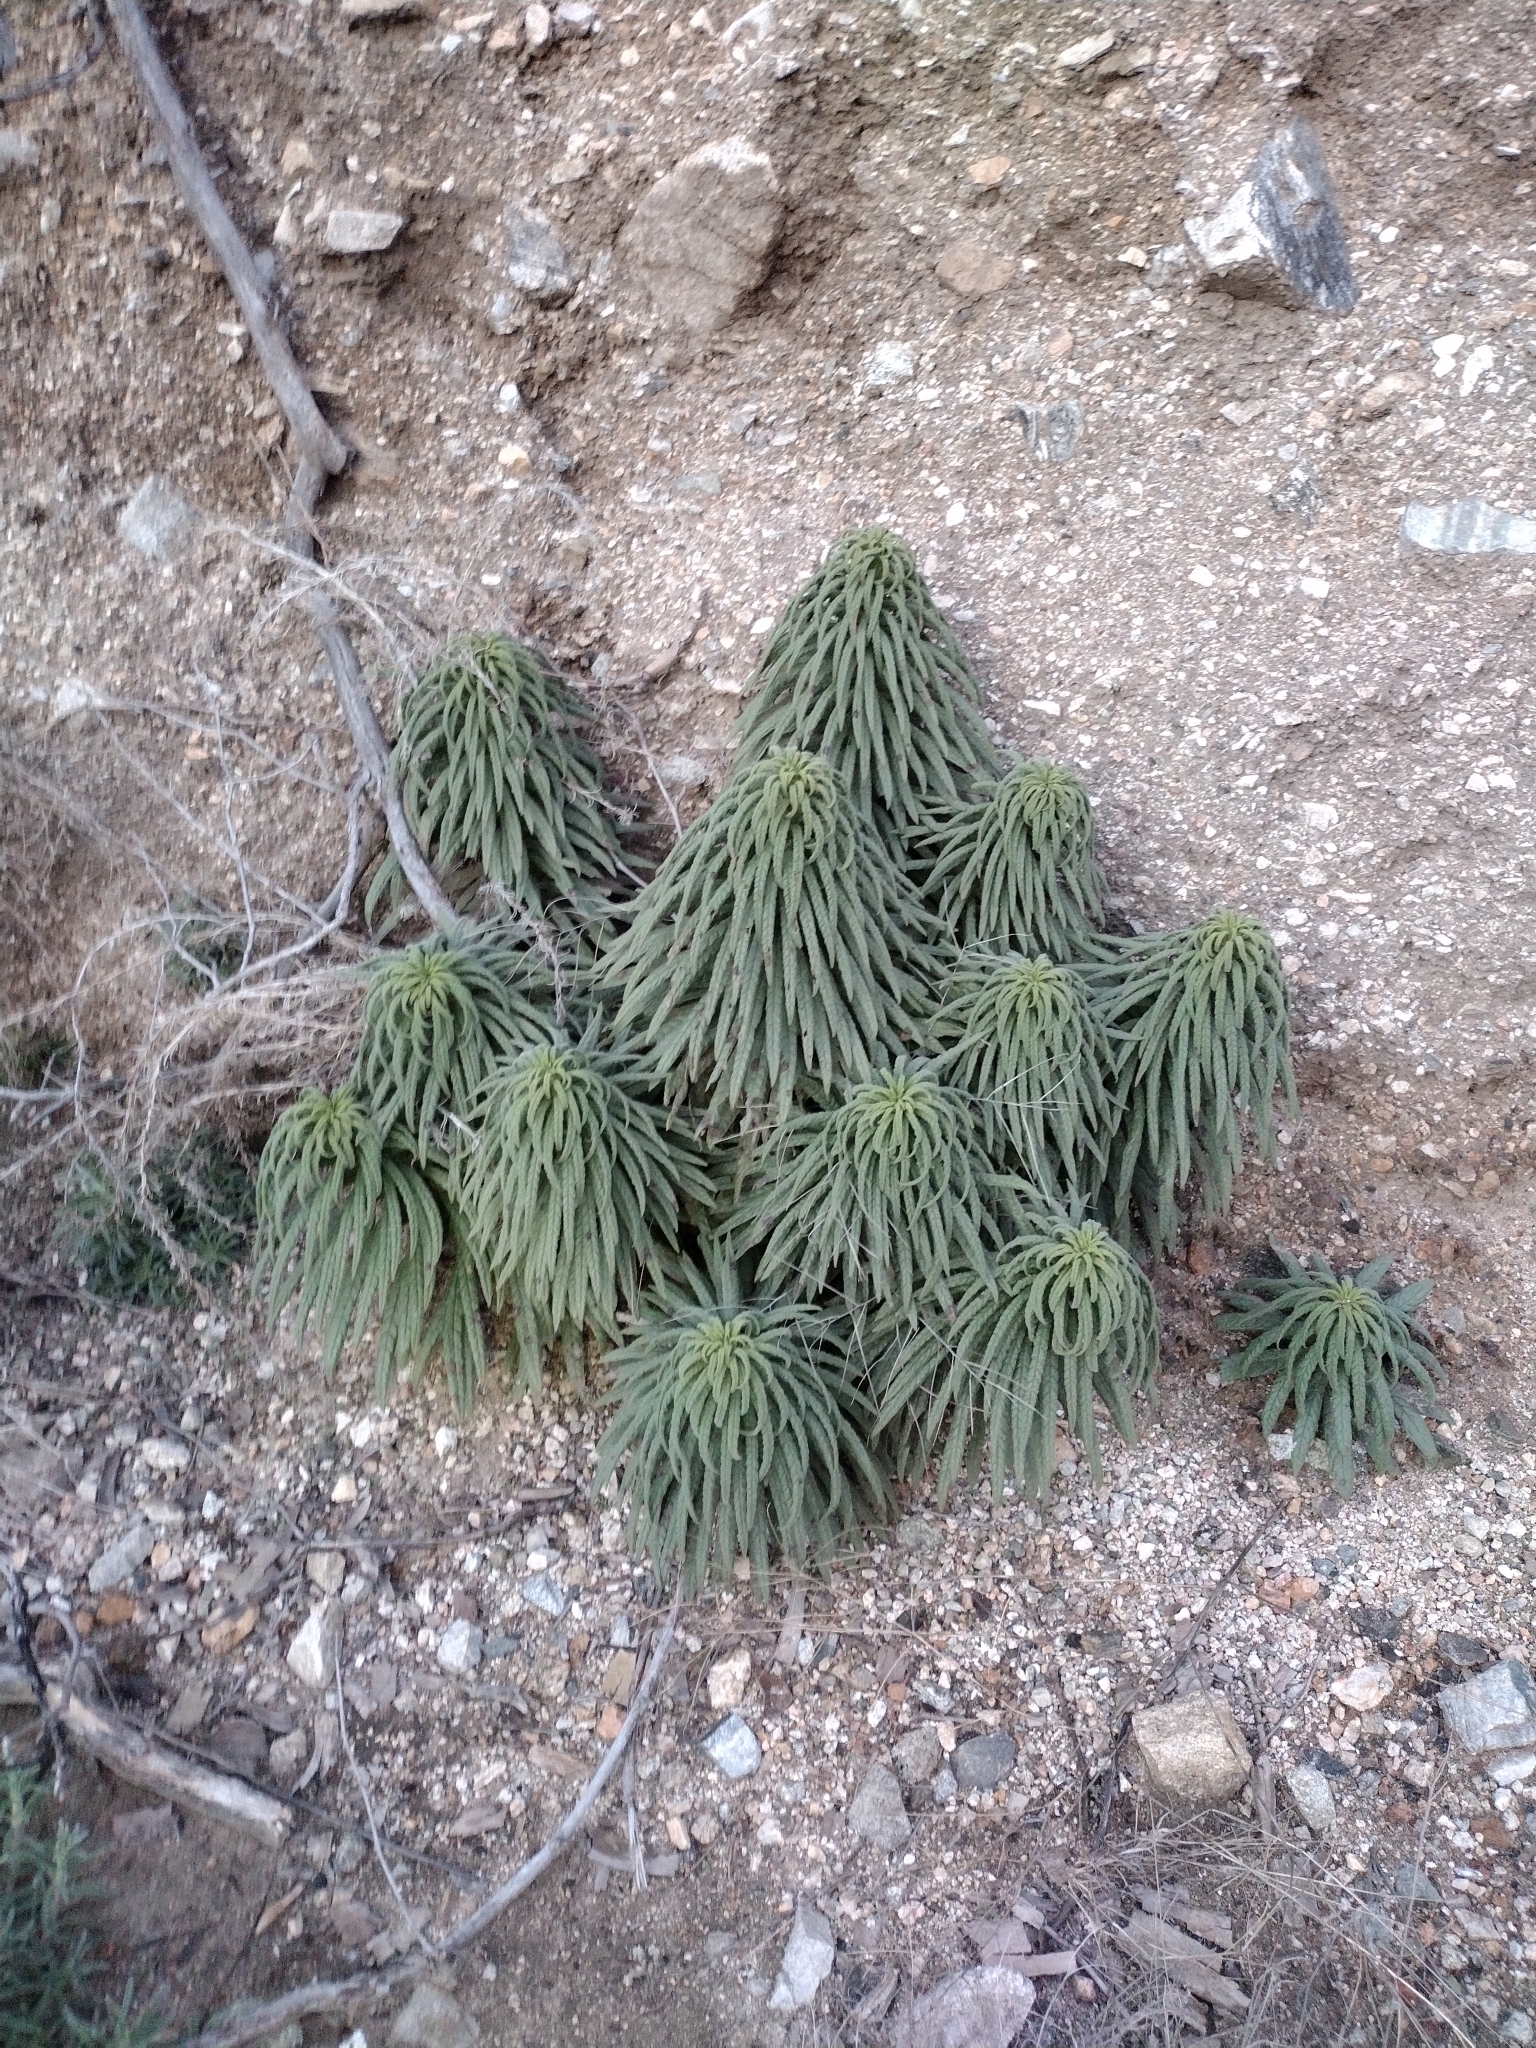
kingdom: Plantae
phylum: Tracheophyta
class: Magnoliopsida
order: Boraginales
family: Namaceae
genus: Turricula
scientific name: Turricula parryi
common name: Poodle-dog-bush
